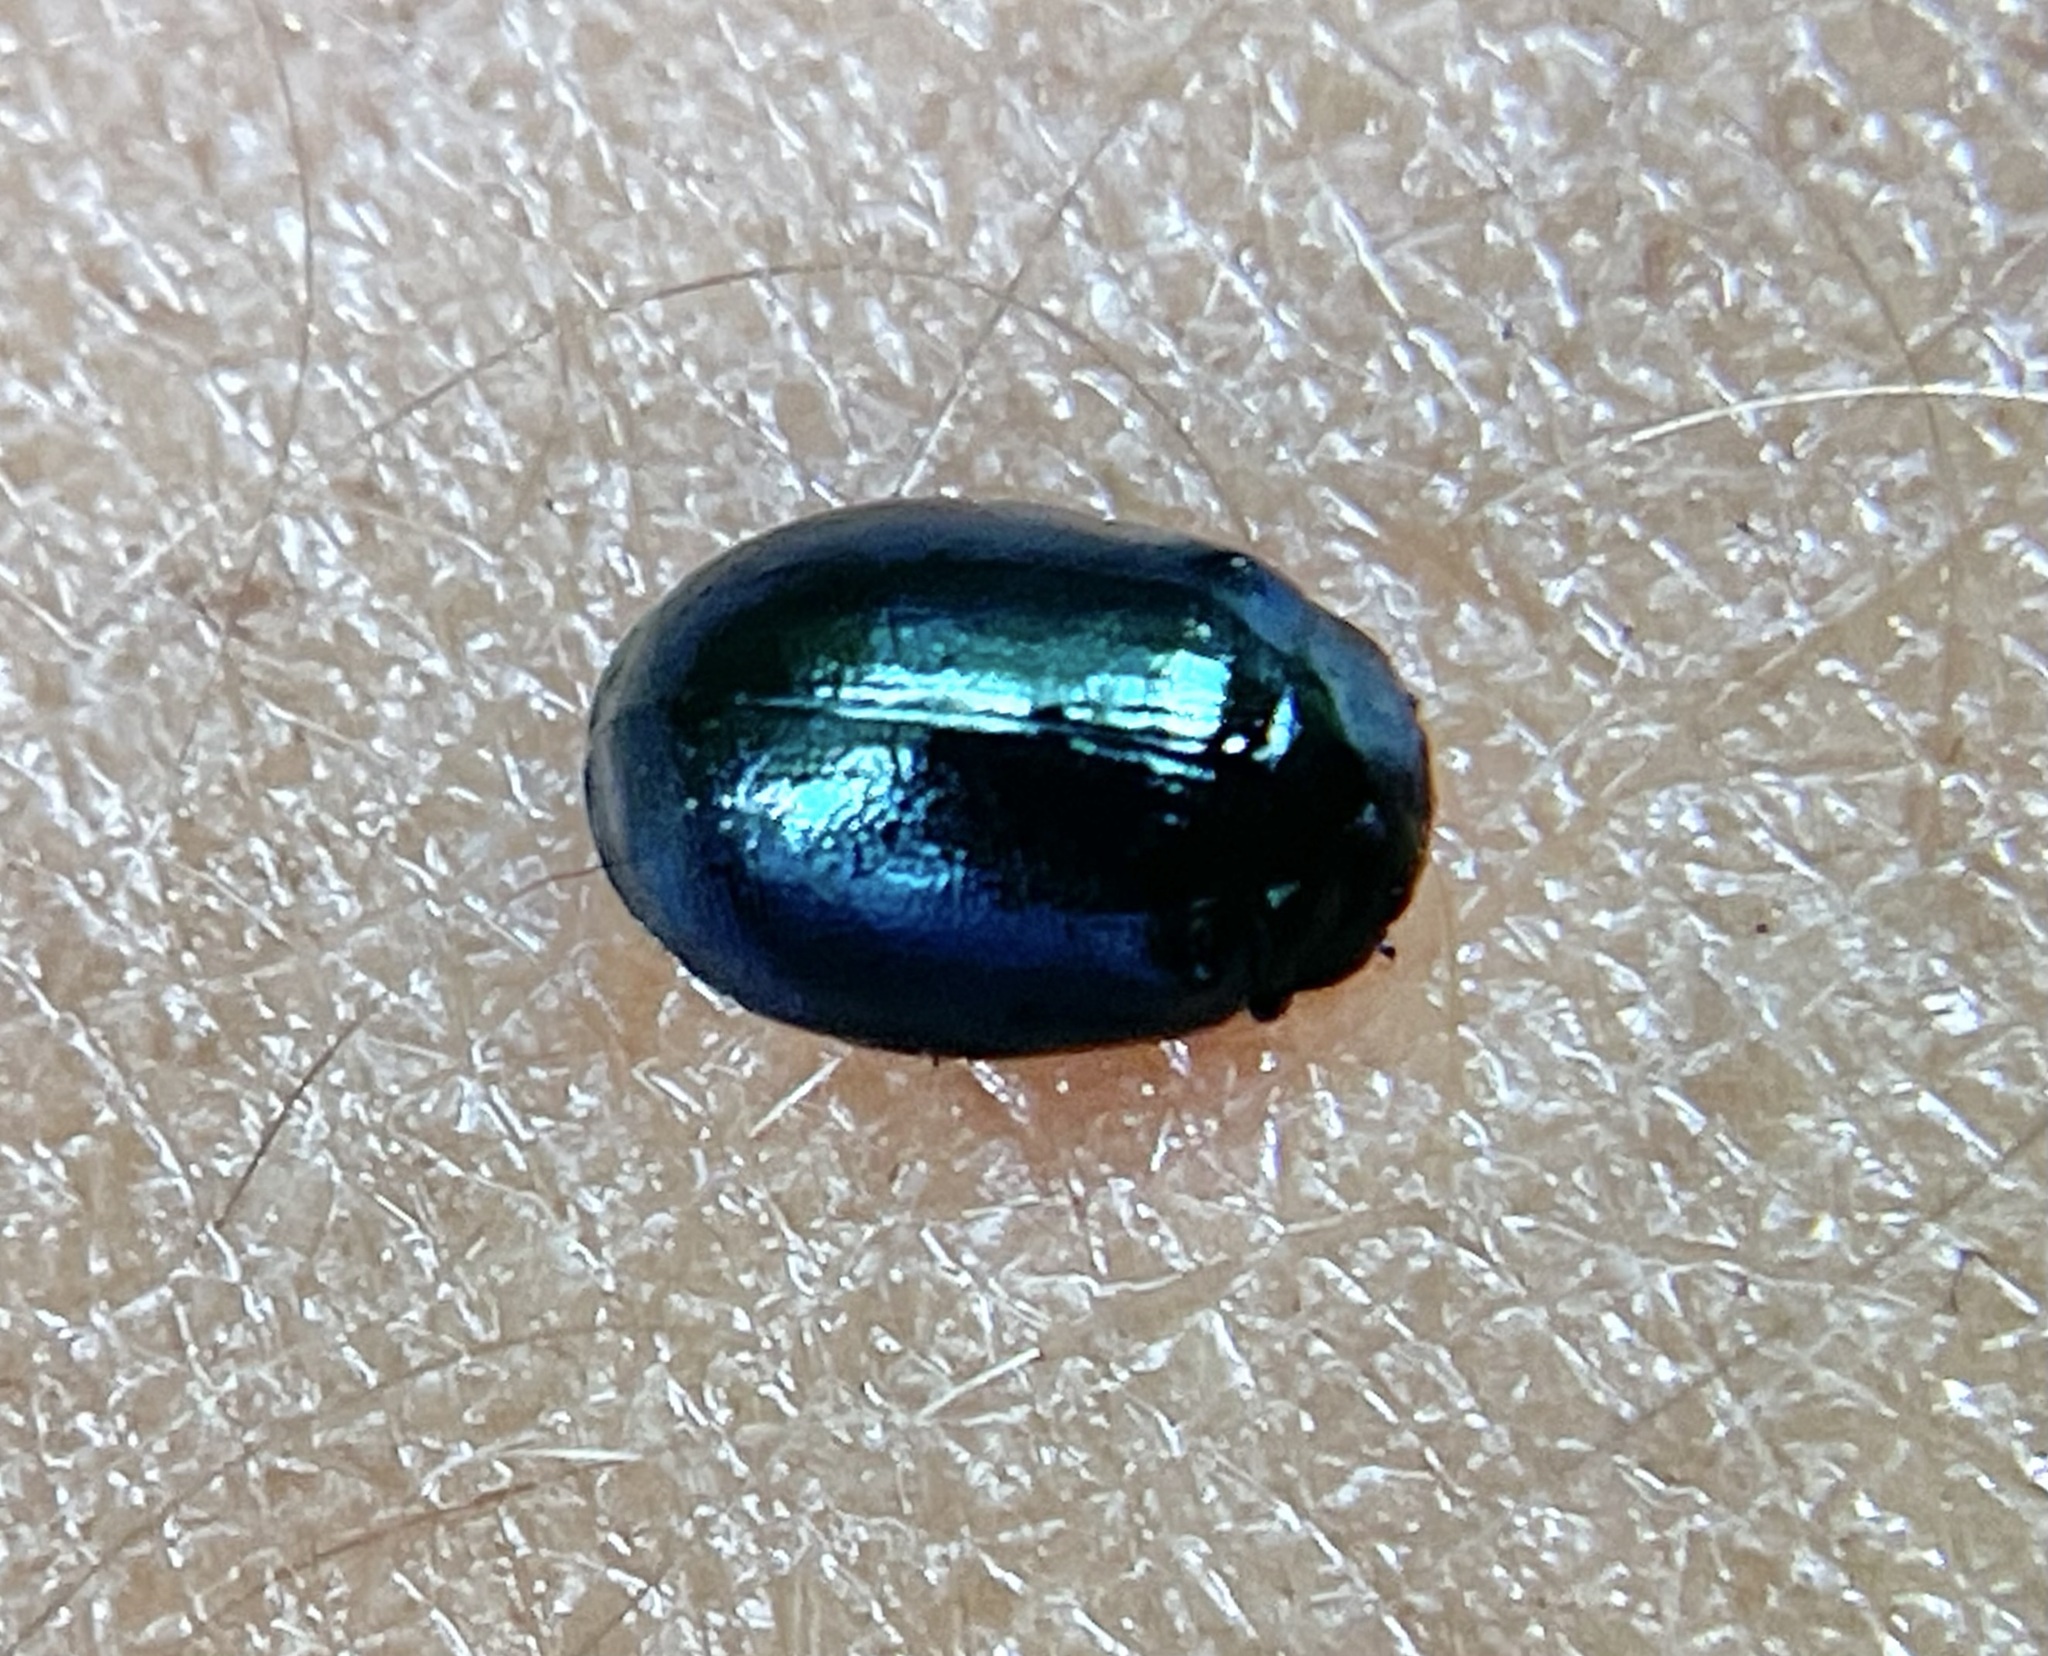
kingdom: Animalia
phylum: Arthropoda
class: Insecta
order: Coleoptera
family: Chrysomelidae
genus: Plagiodera
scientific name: Plagiodera versicolora
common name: Imported willow leaf beetle
